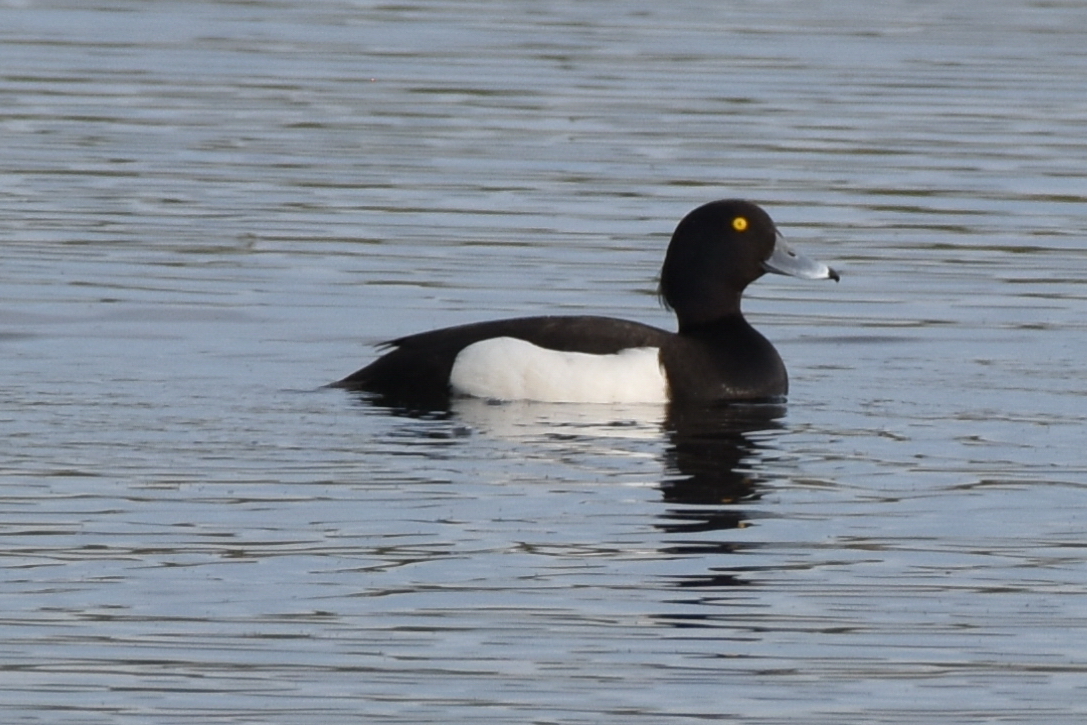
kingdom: Animalia
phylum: Chordata
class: Aves
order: Anseriformes
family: Anatidae
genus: Aythya
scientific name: Aythya fuligula
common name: Tufted duck
